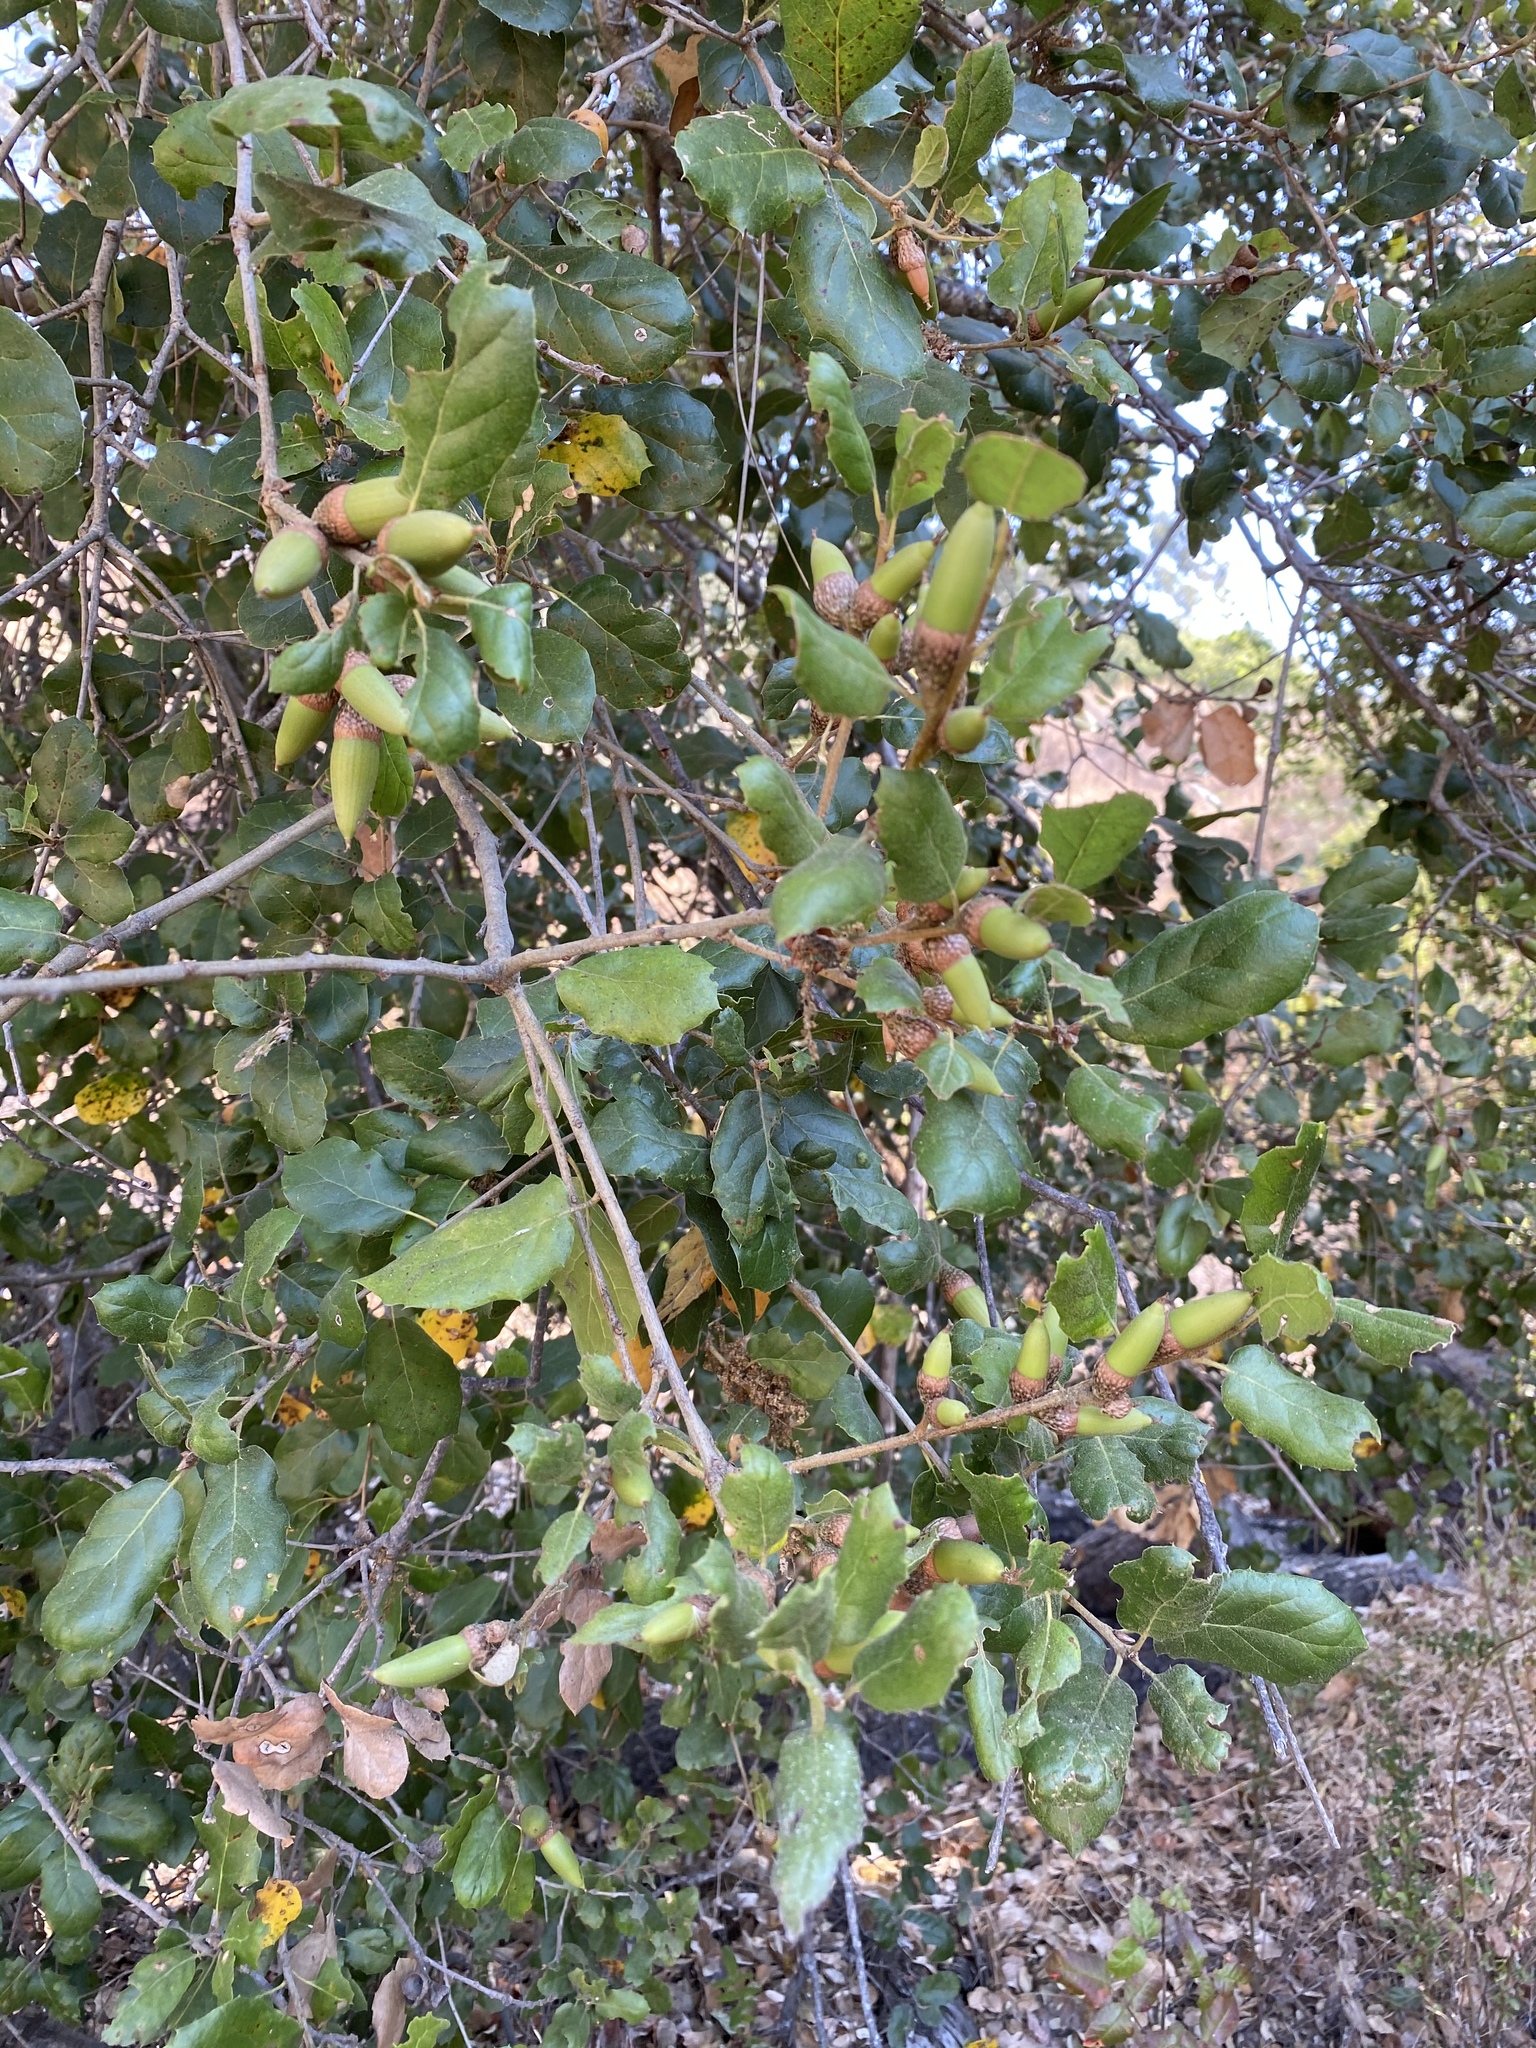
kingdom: Plantae
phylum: Tracheophyta
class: Magnoliopsida
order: Fagales
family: Fagaceae
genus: Quercus
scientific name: Quercus agrifolia
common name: California live oak
